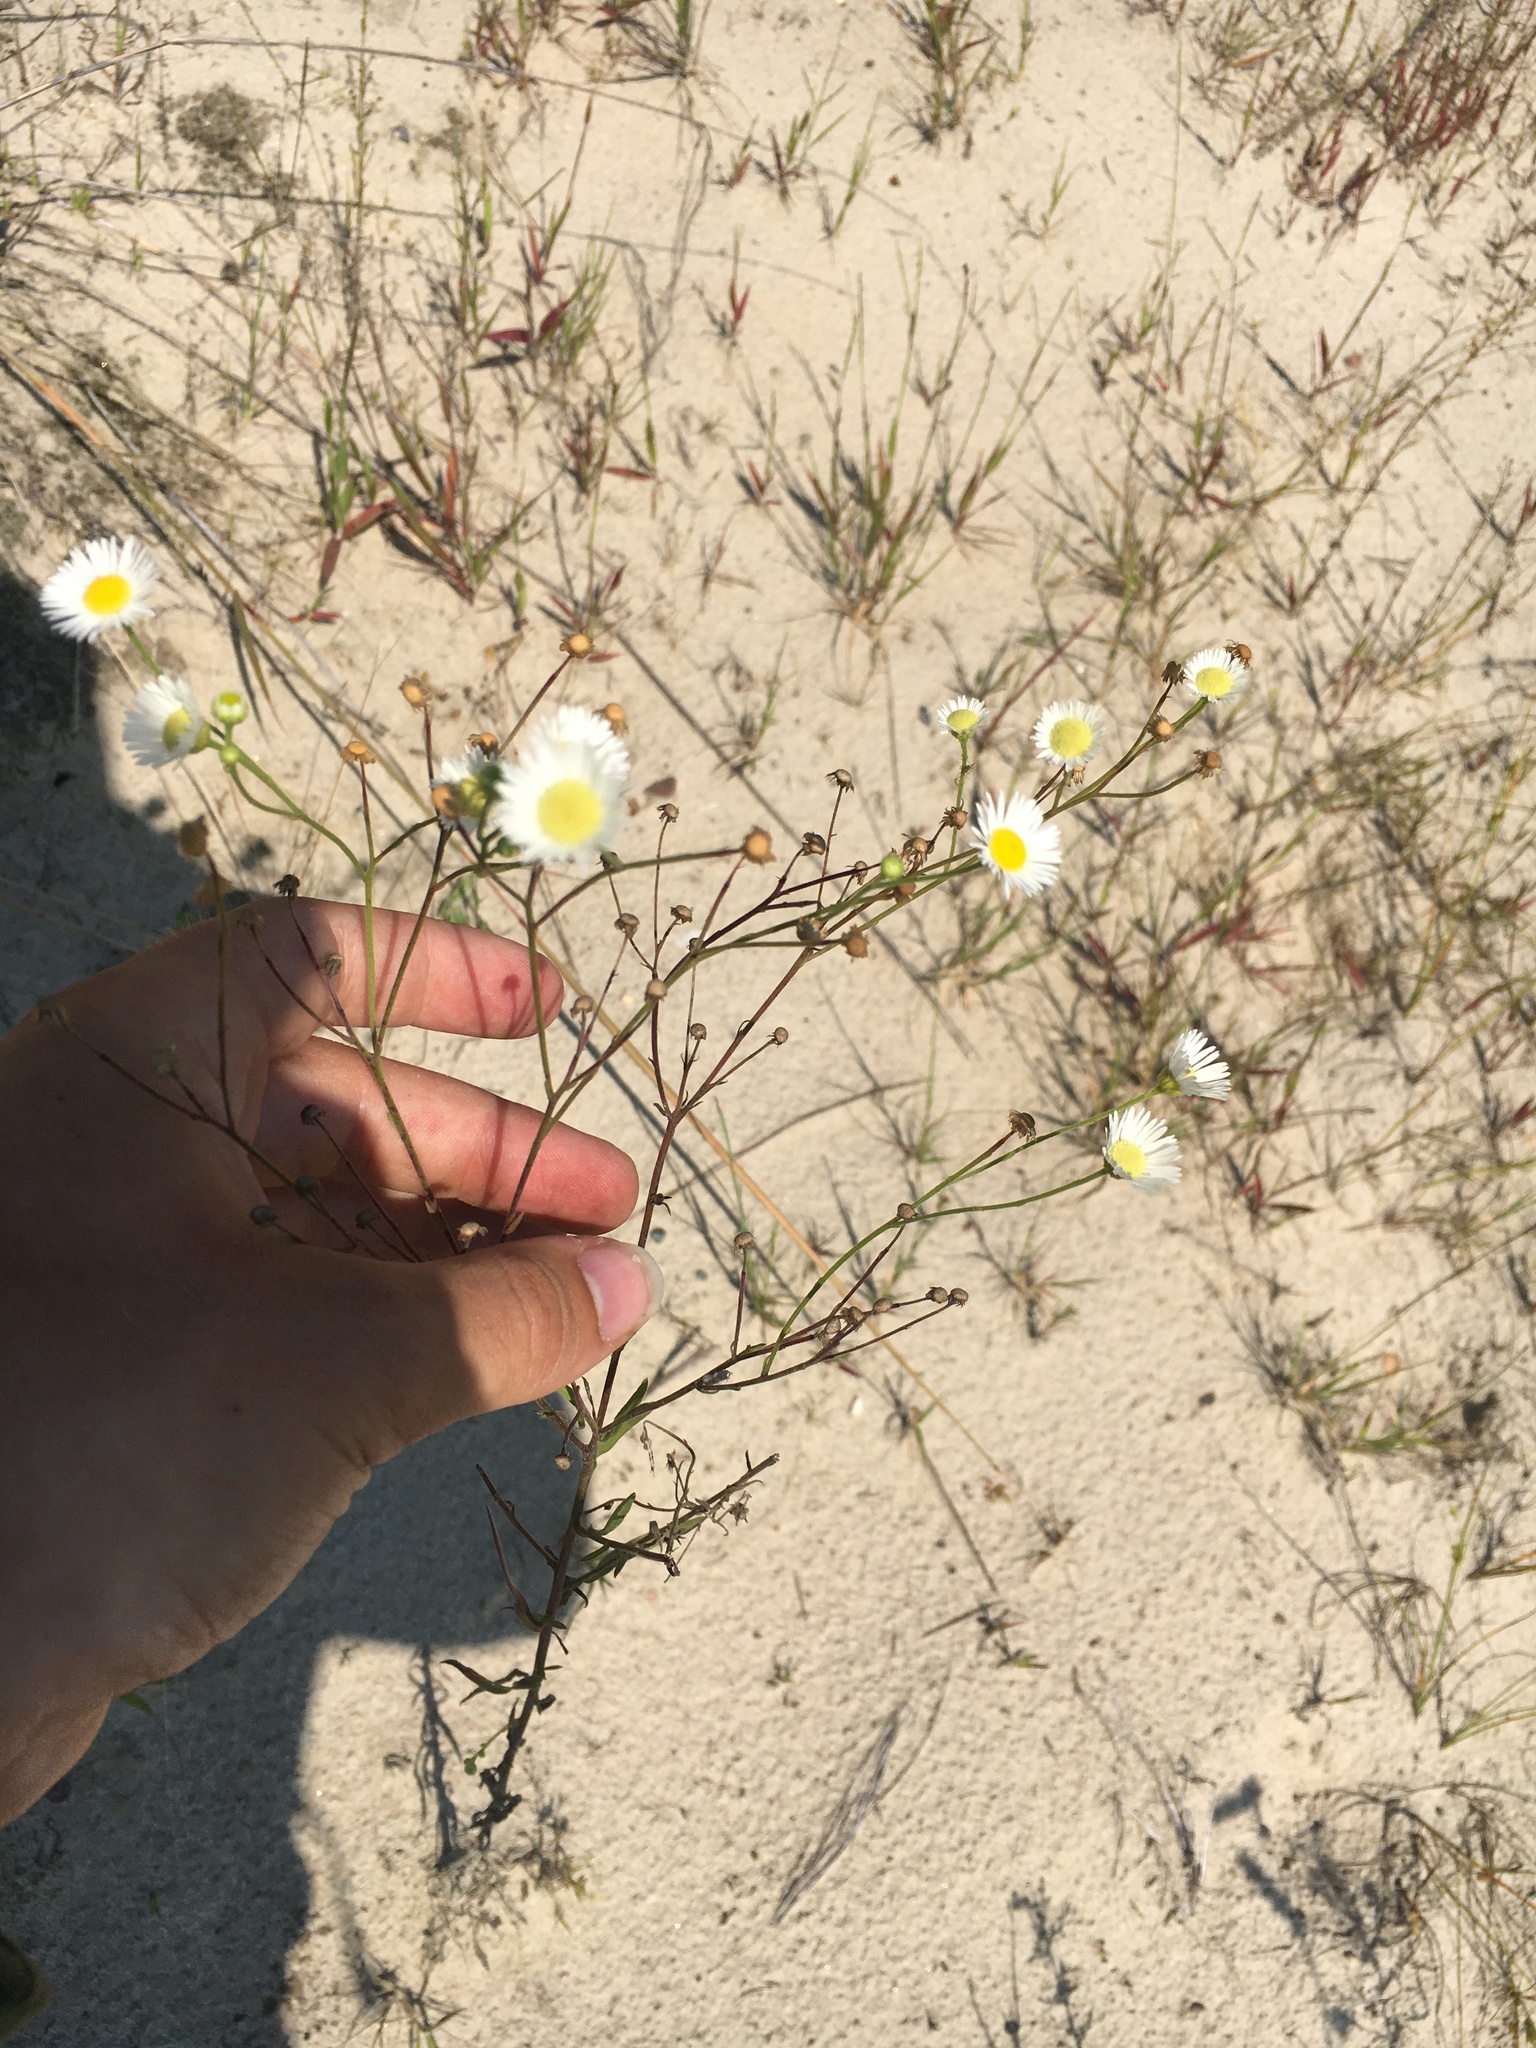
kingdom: Plantae
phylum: Tracheophyta
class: Magnoliopsida
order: Asterales
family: Asteraceae
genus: Erigeron
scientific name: Erigeron strigosus
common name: Common eastern fleabane
